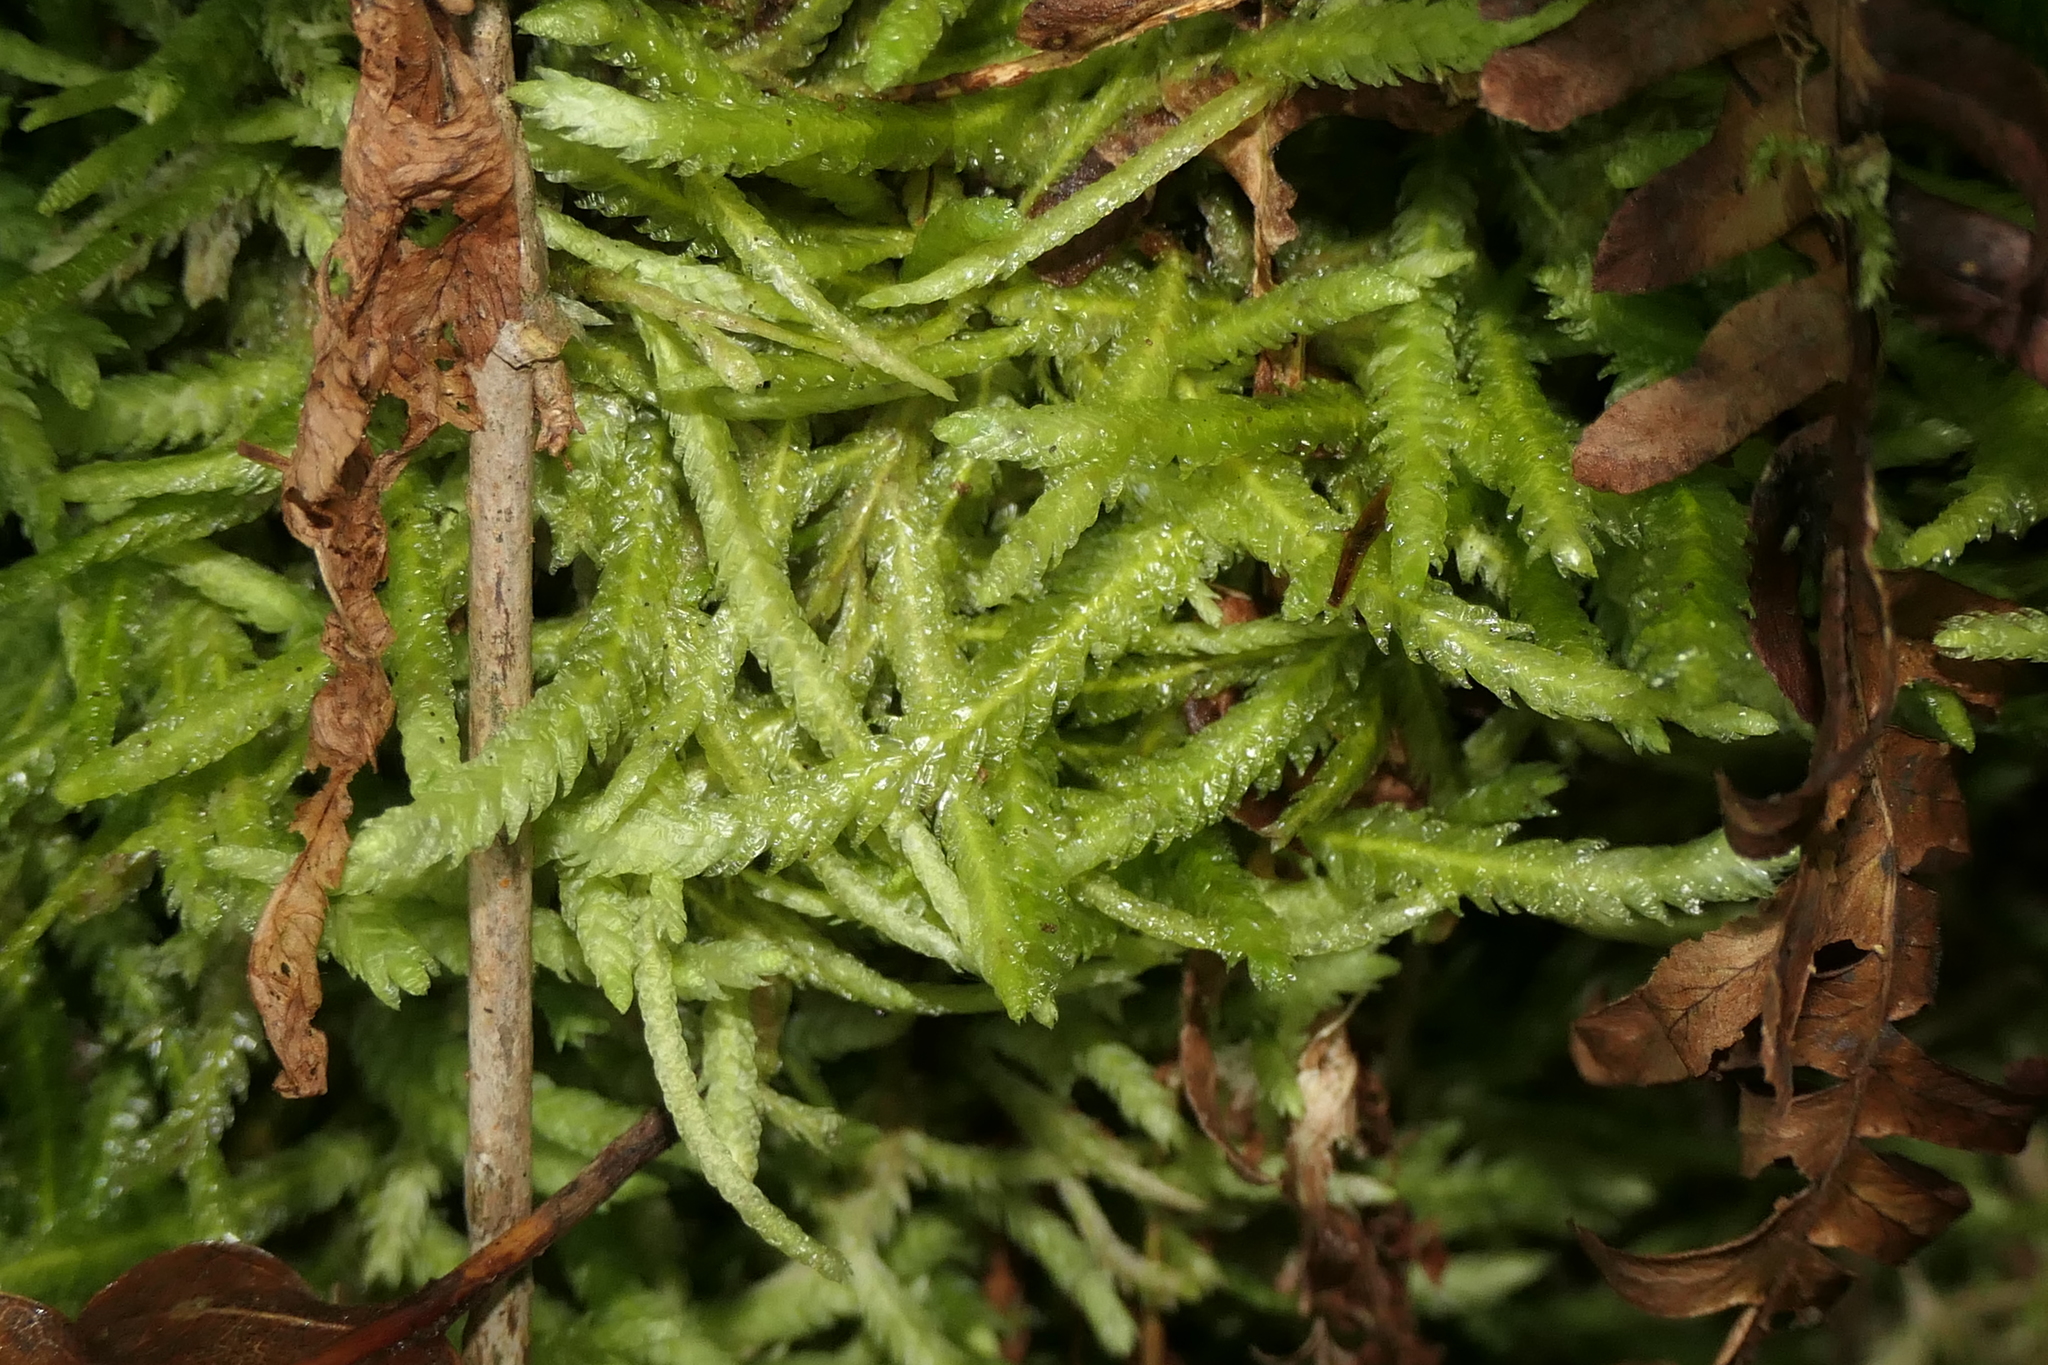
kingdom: Plantae
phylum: Bryophyta
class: Bryopsida
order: Hypnales
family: Plagiotheciaceae
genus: Plagiothecium
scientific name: Plagiothecium undulatum
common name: Waved silk-moss
